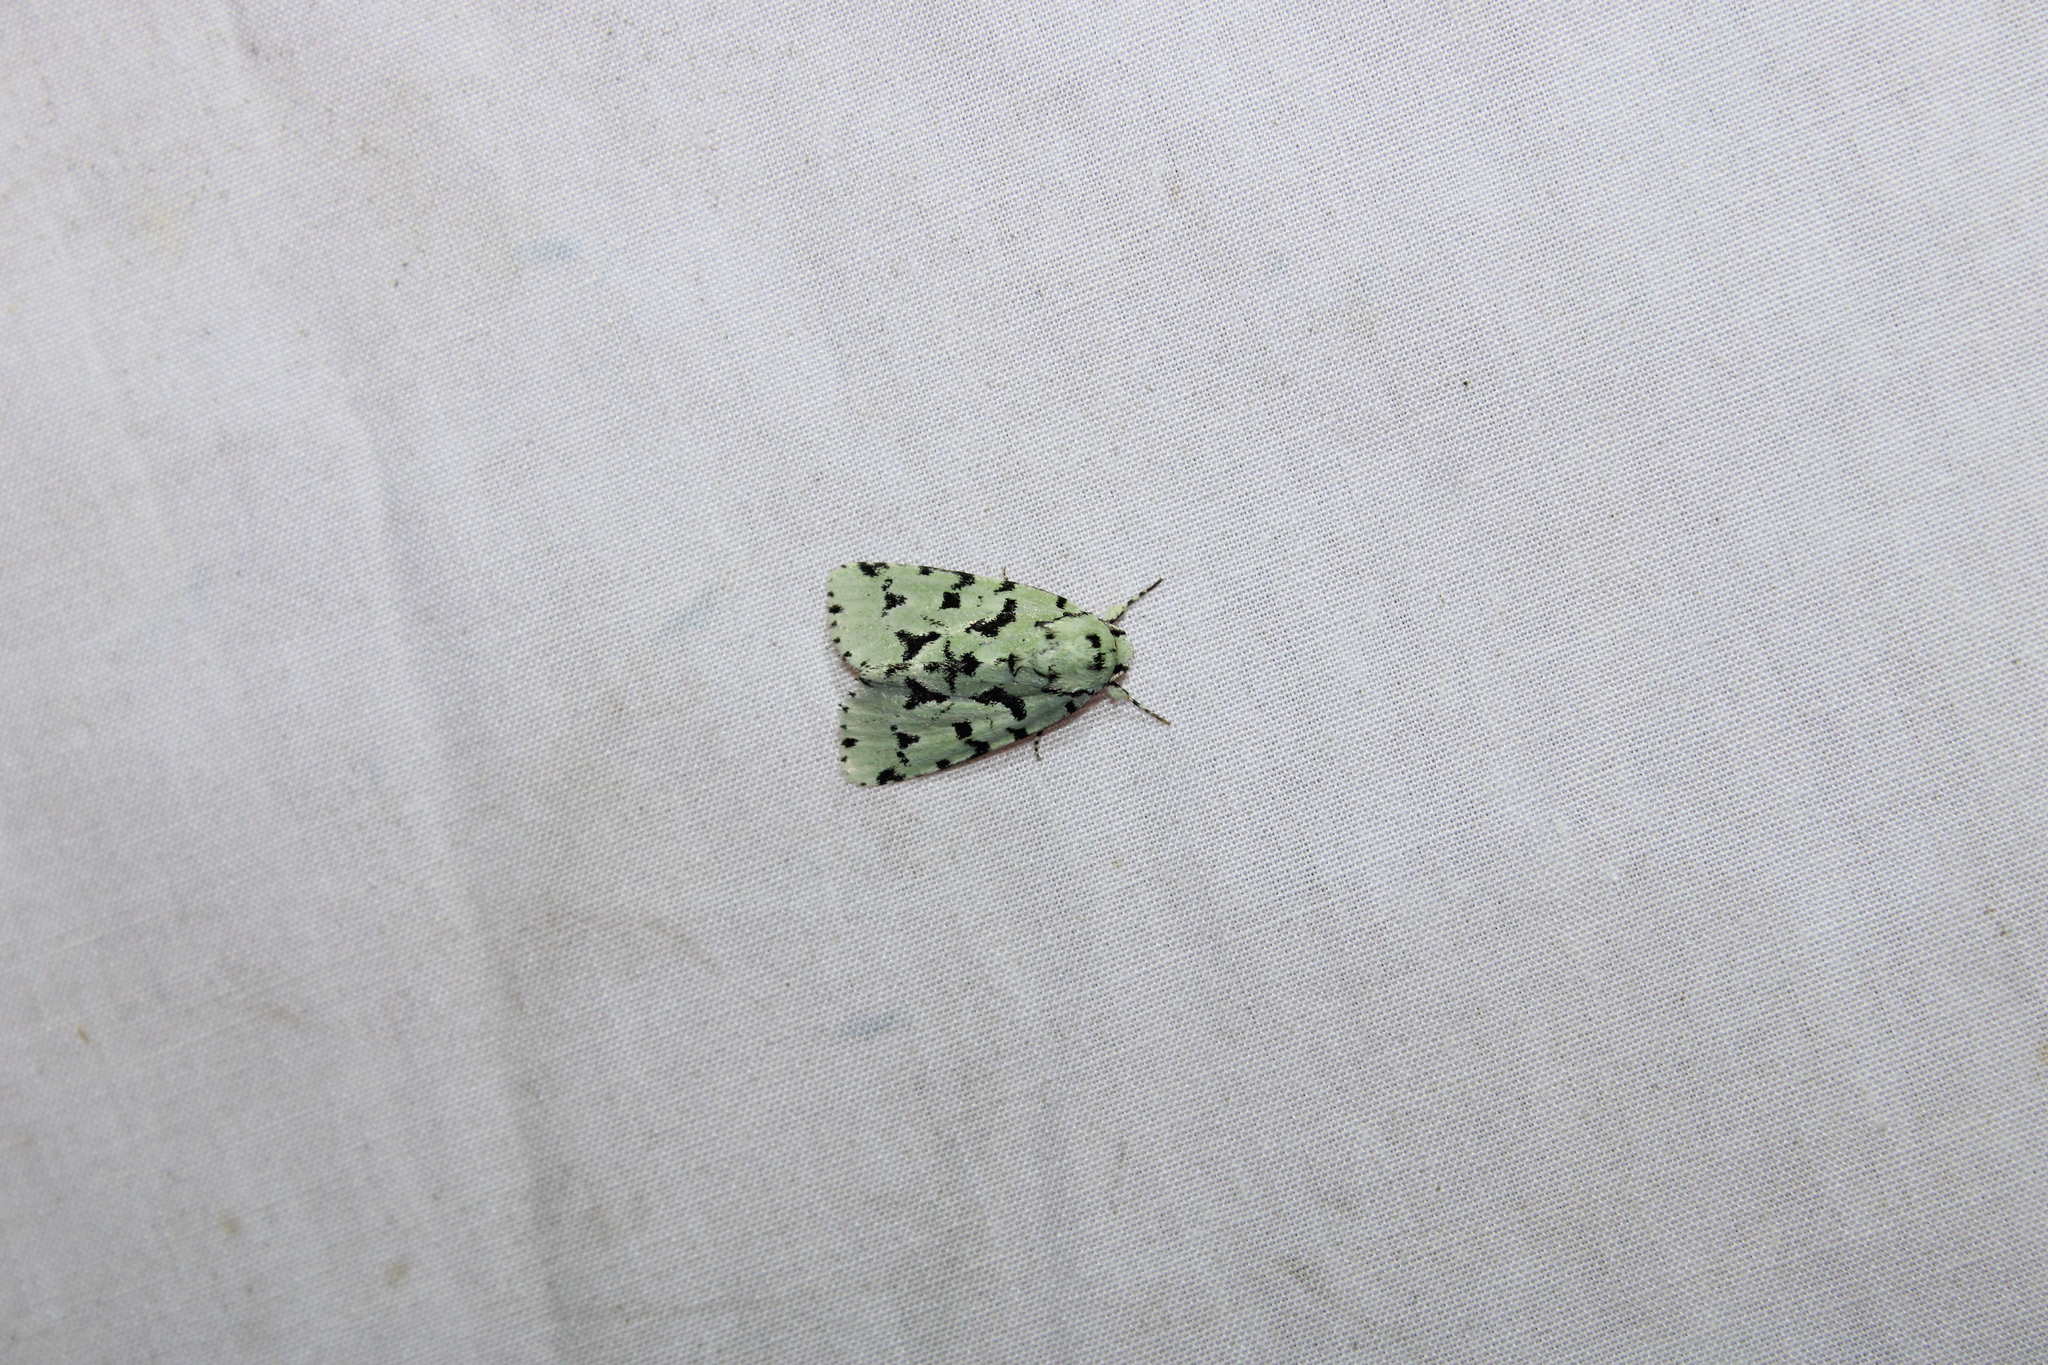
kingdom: Animalia
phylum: Arthropoda
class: Insecta
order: Lepidoptera
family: Noctuidae
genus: Acronicta
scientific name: Acronicta fallax
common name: Green marvel
